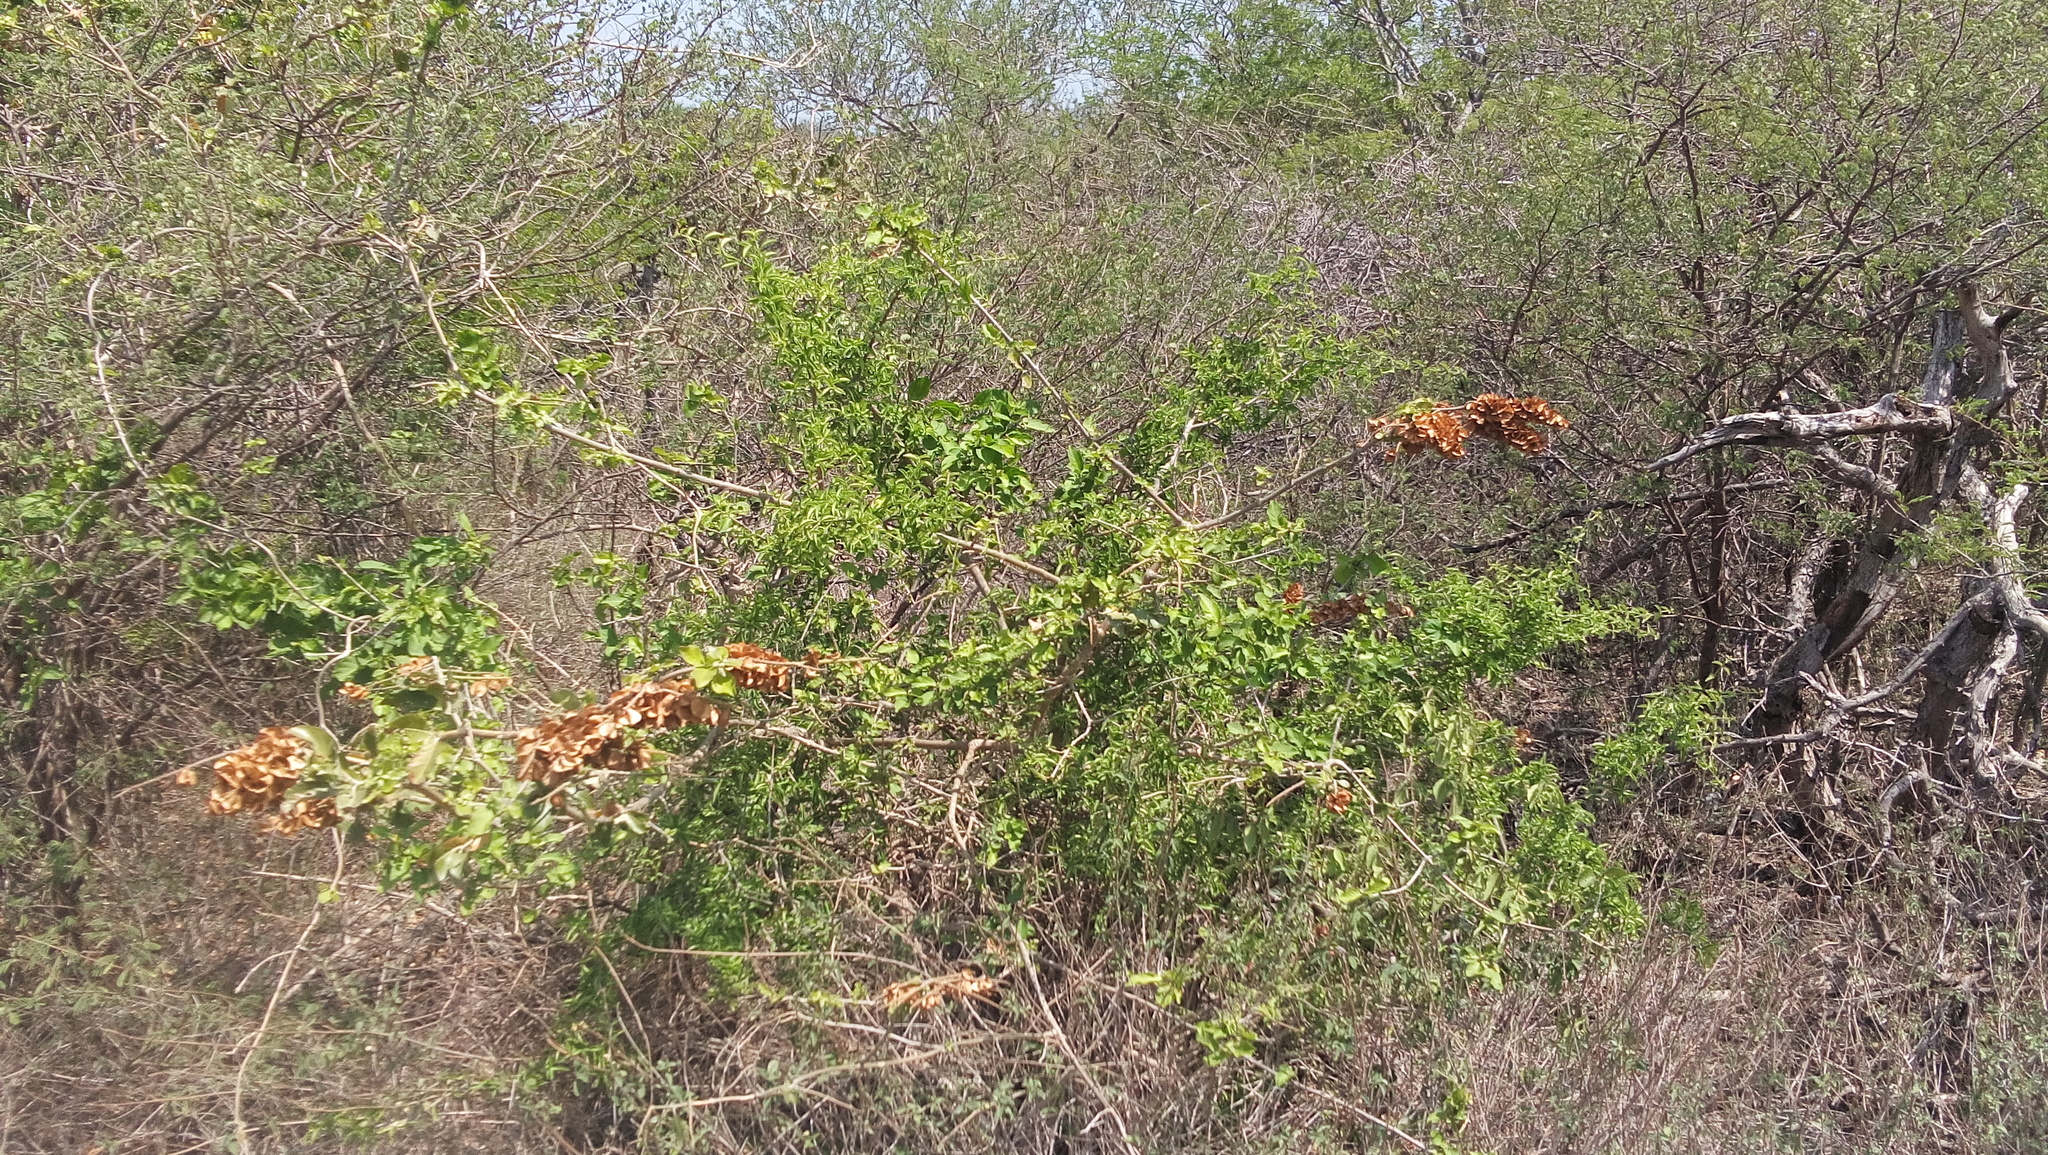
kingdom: Plantae
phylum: Tracheophyta
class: Magnoliopsida
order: Myrtales
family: Combretaceae
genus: Combretum
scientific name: Combretum farinosum
